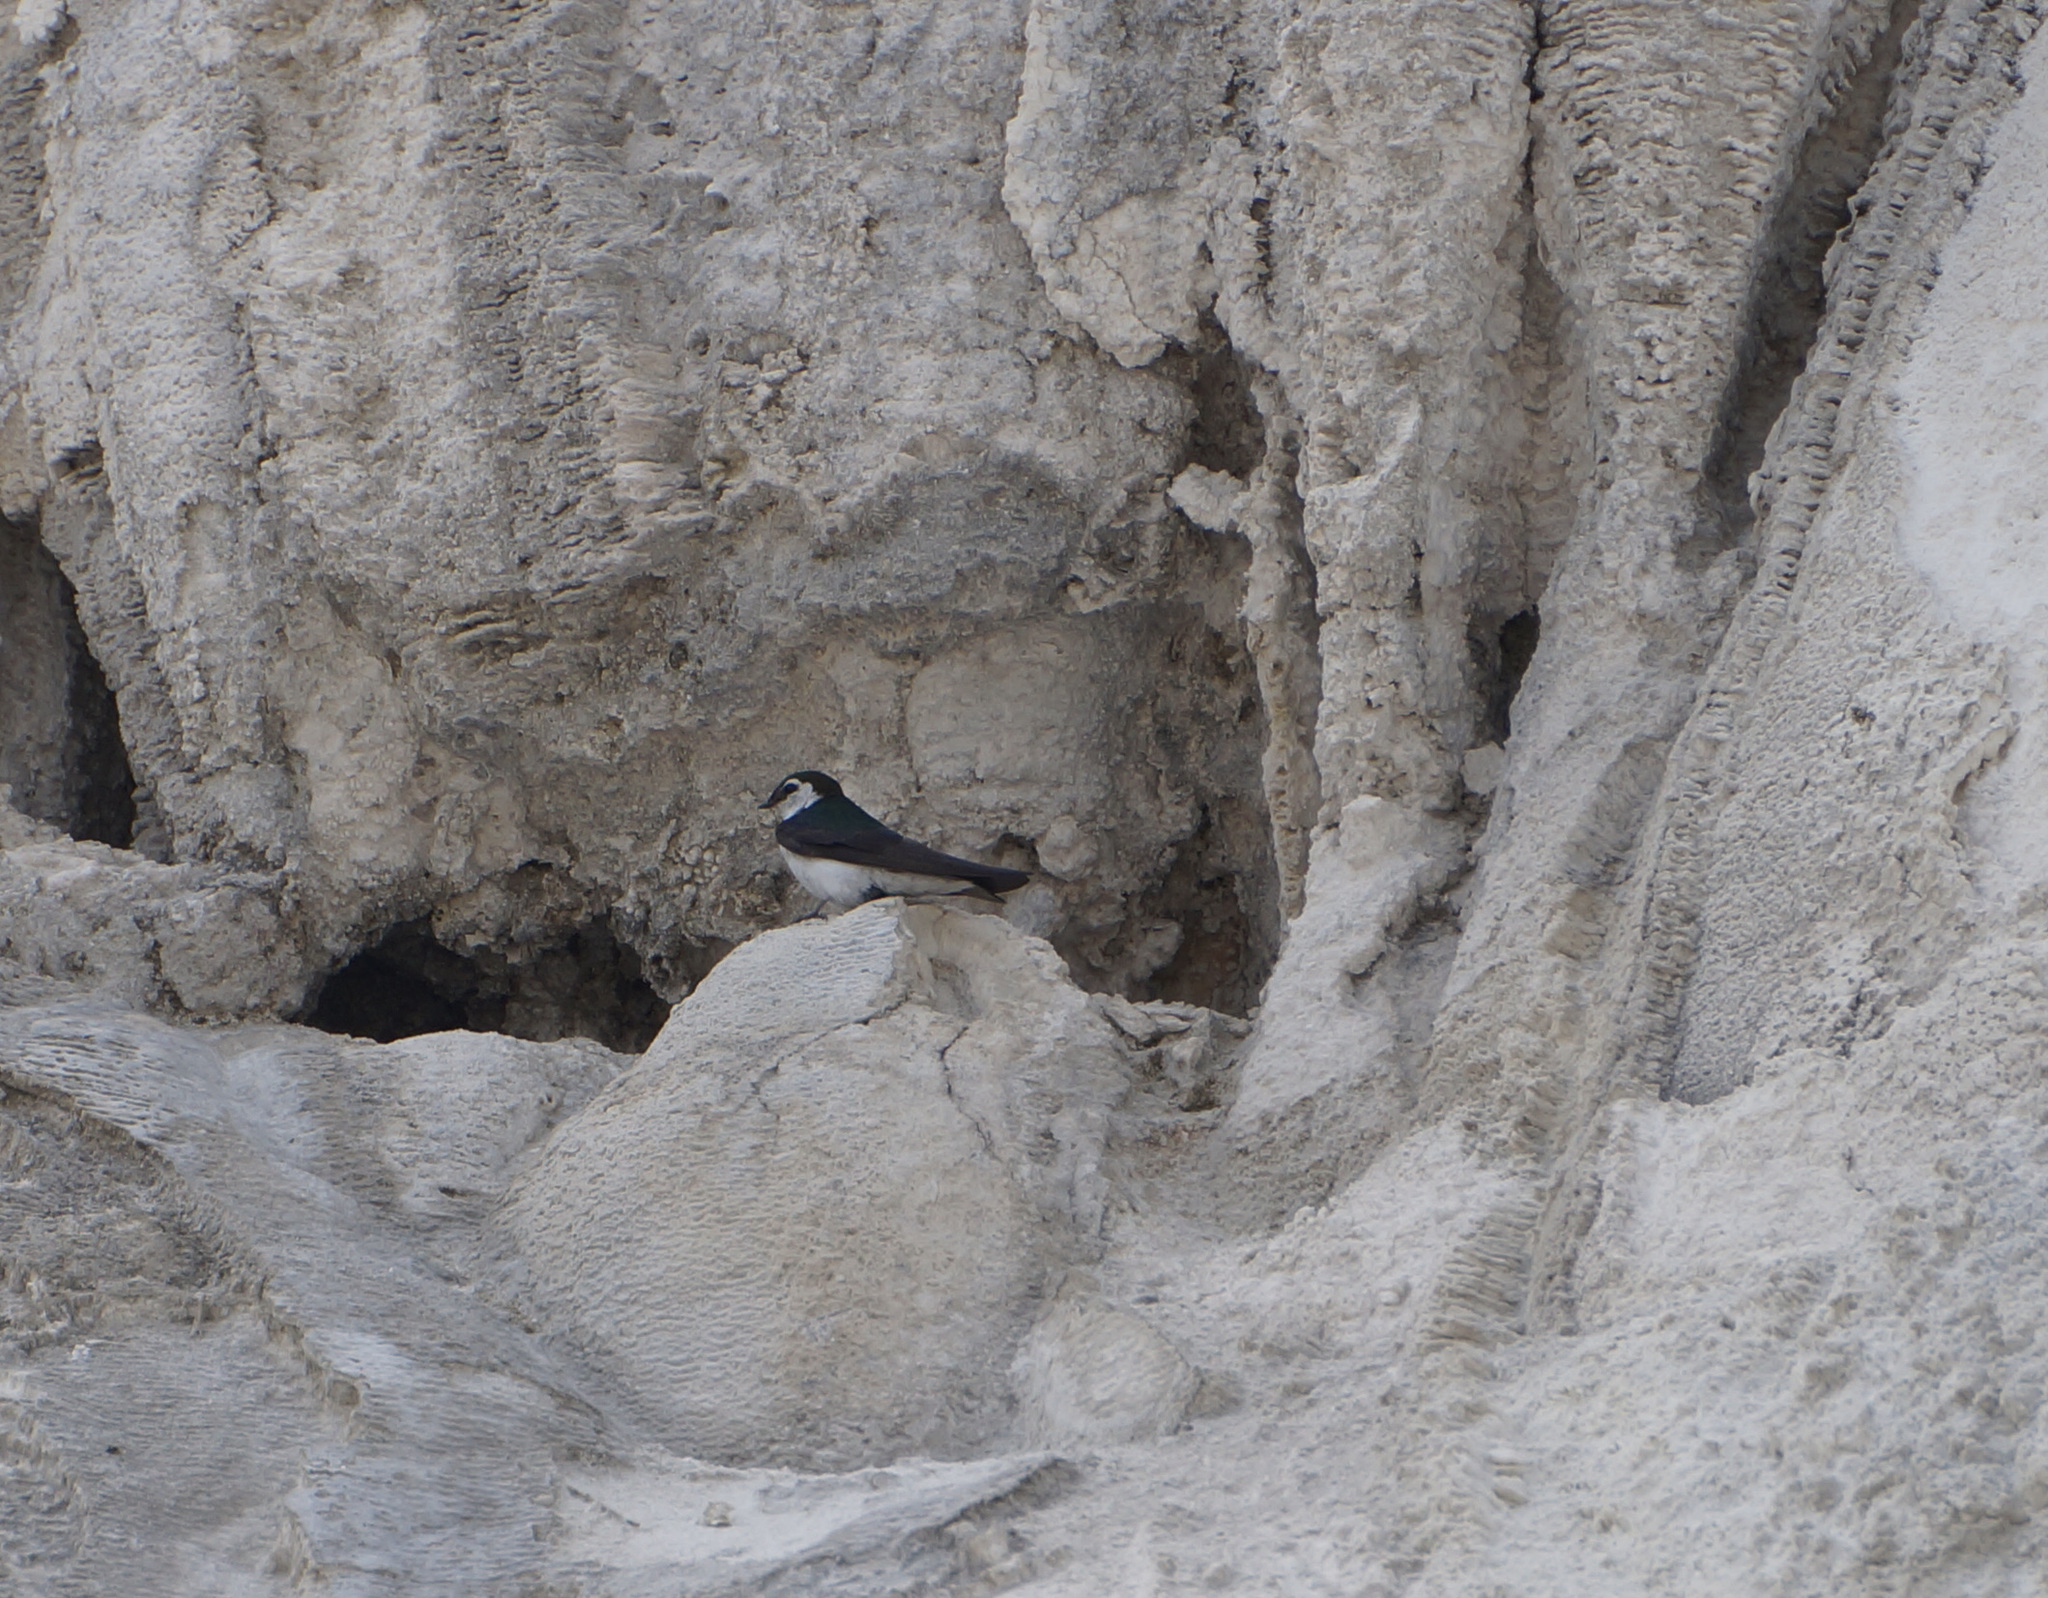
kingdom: Animalia
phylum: Chordata
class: Aves
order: Passeriformes
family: Hirundinidae
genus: Tachycineta
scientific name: Tachycineta thalassina
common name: Violet-green swallow
